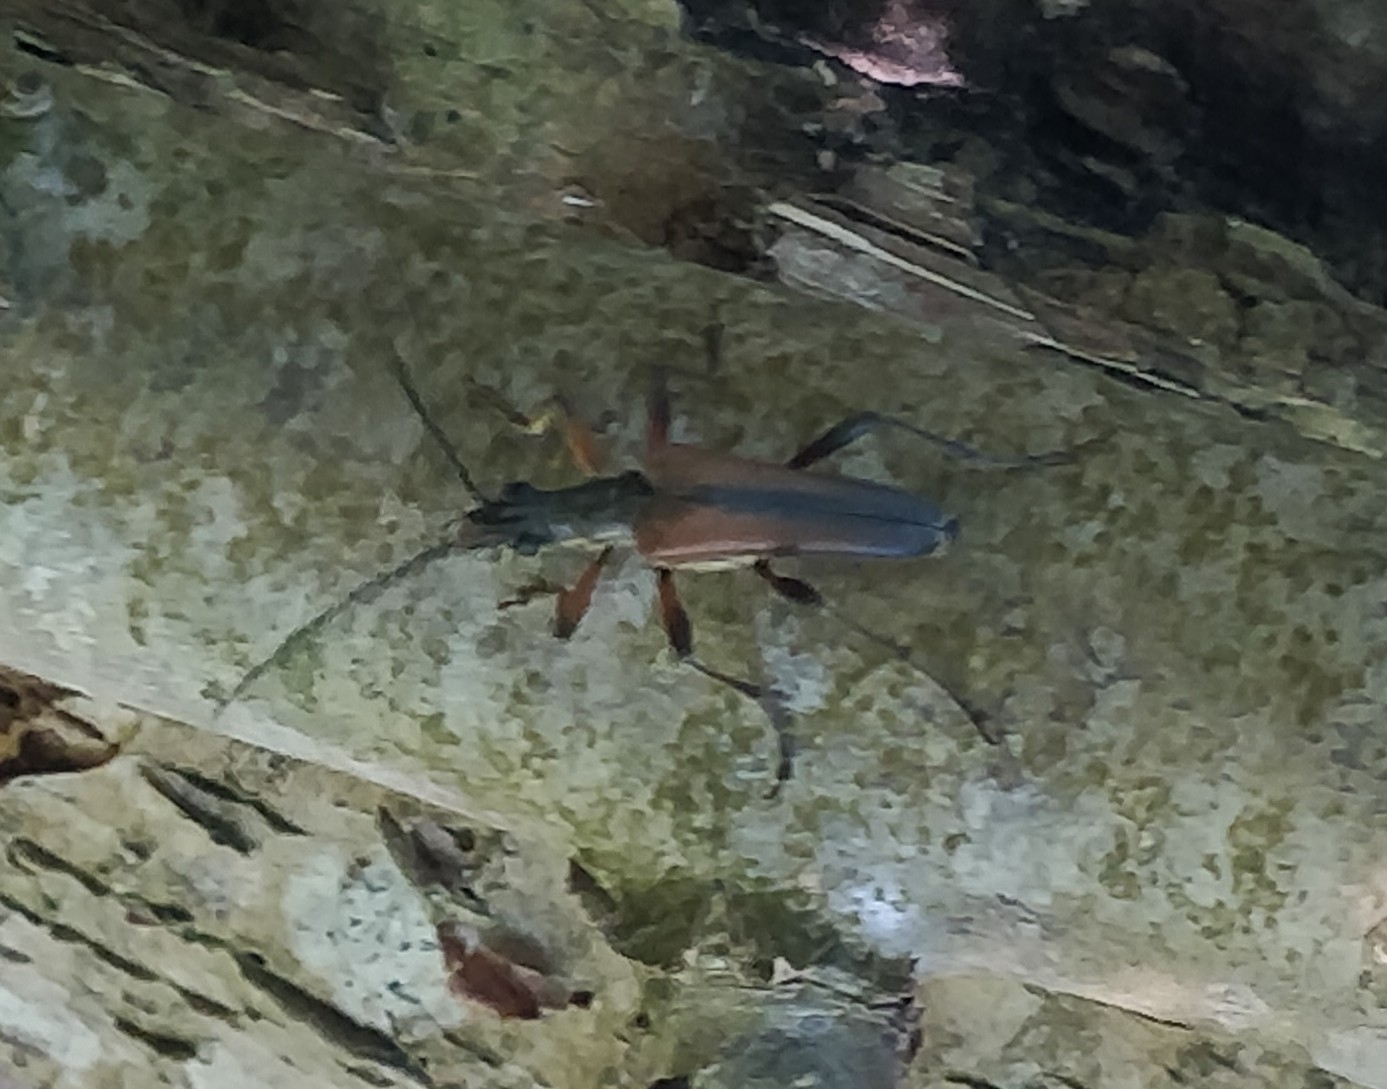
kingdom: Animalia
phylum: Arthropoda
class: Insecta
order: Coleoptera
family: Cerambycidae
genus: Stenocorus
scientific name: Stenocorus meridianus
